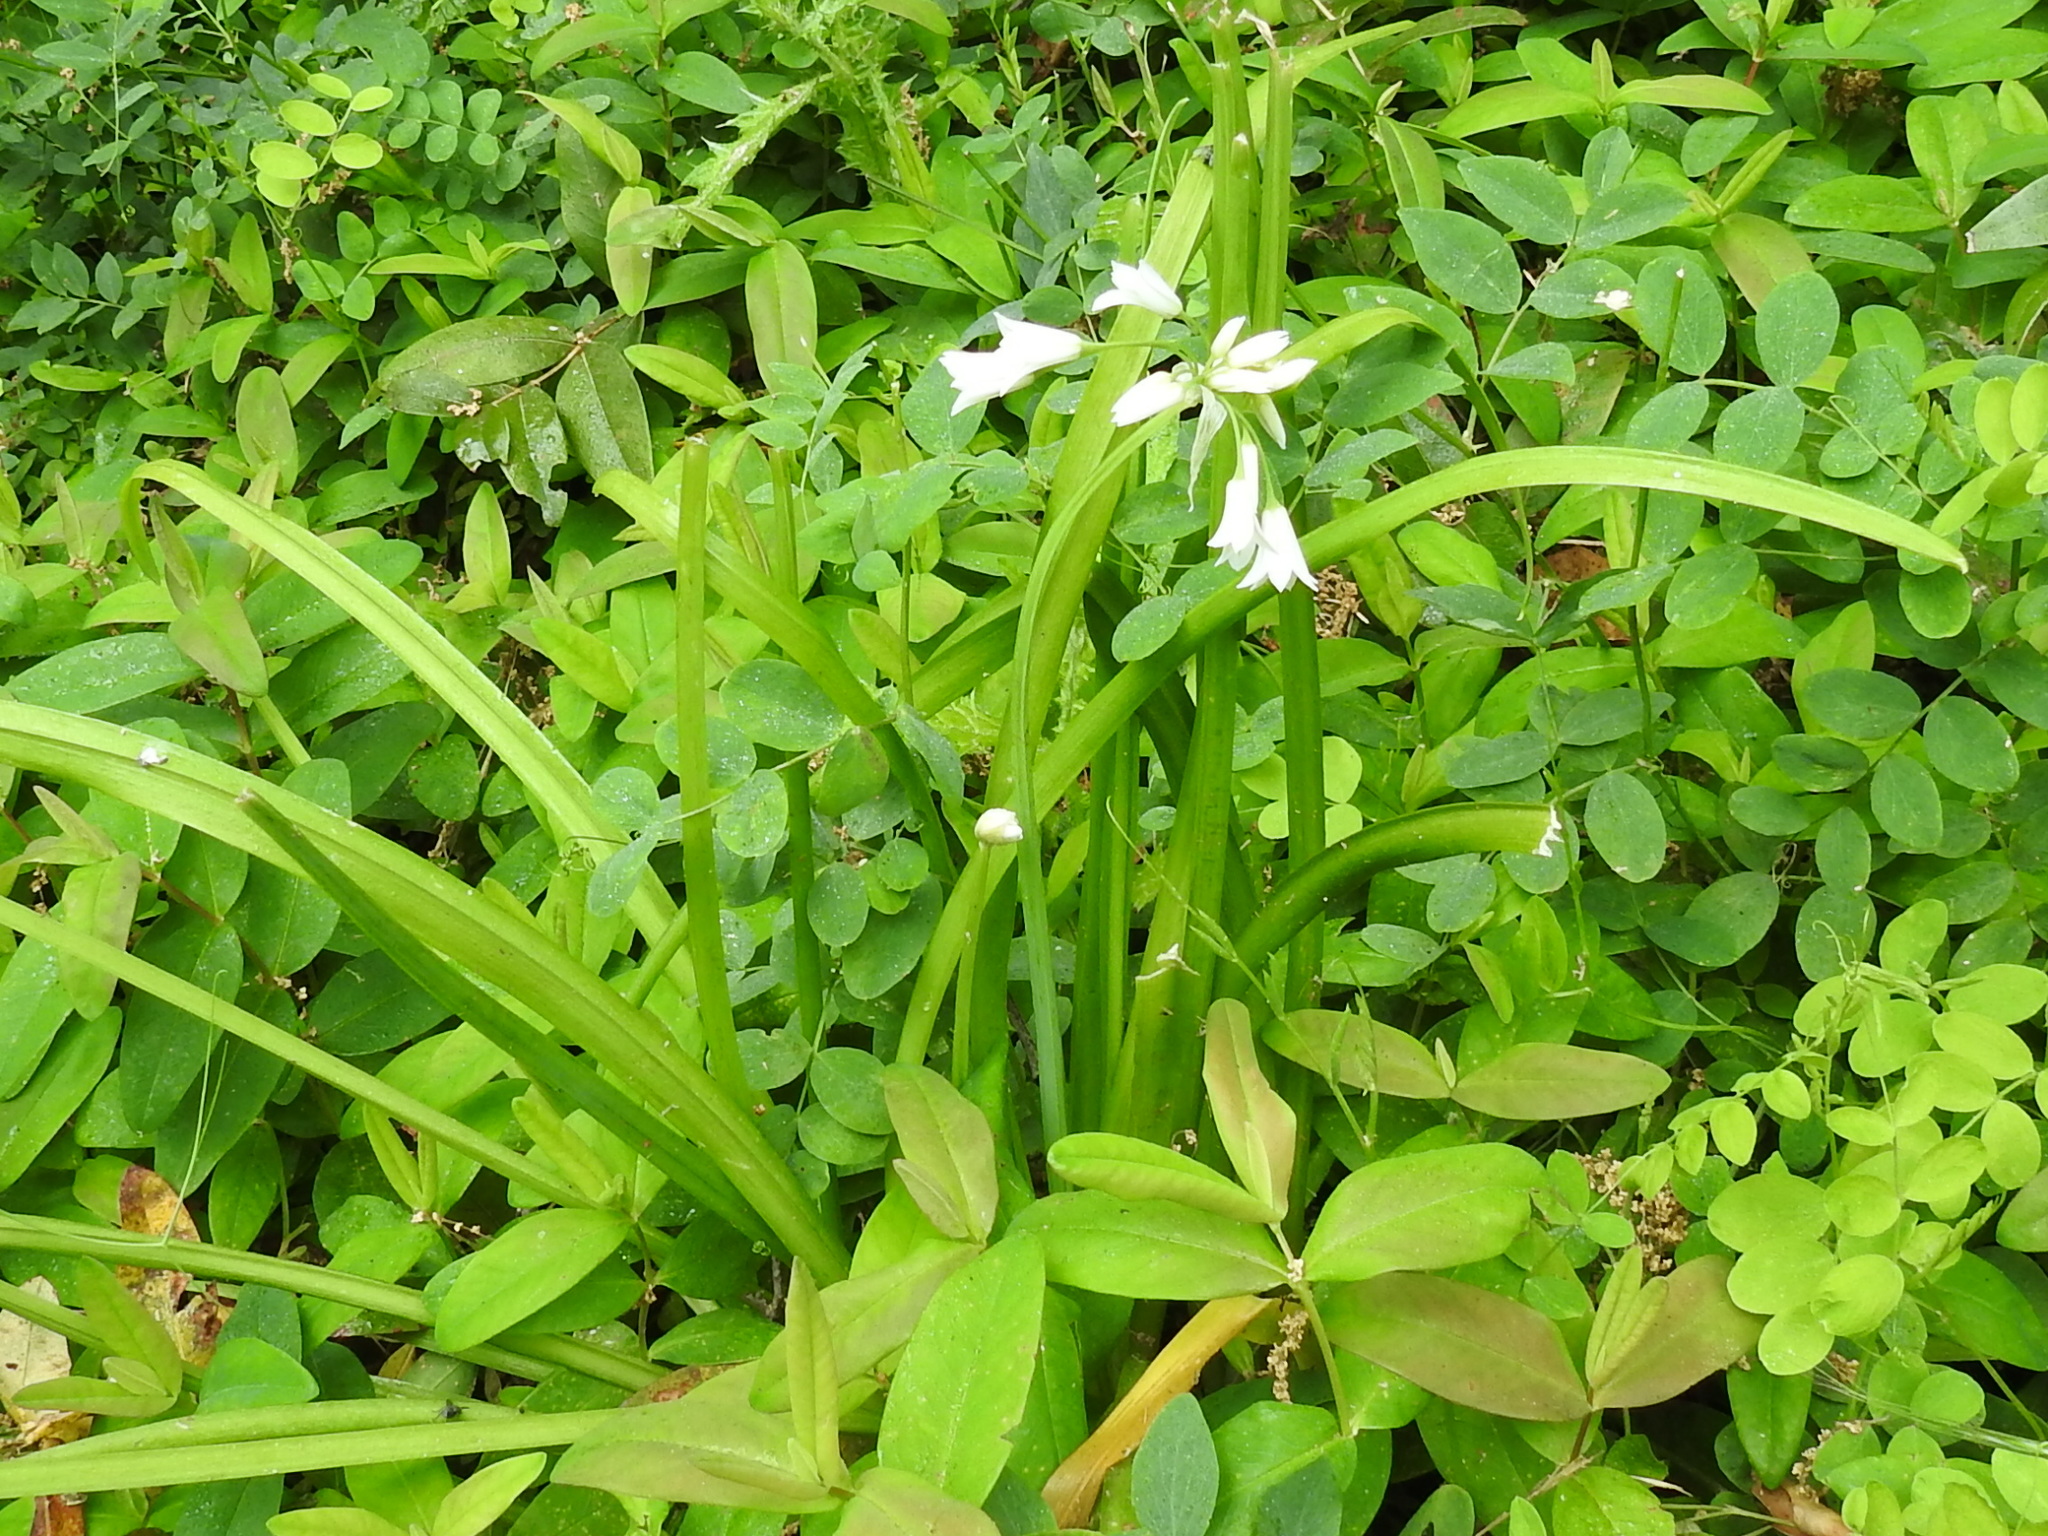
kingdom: Plantae
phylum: Tracheophyta
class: Liliopsida
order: Asparagales
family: Amaryllidaceae
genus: Allium
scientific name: Allium triquetrum
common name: Three-cornered garlic
